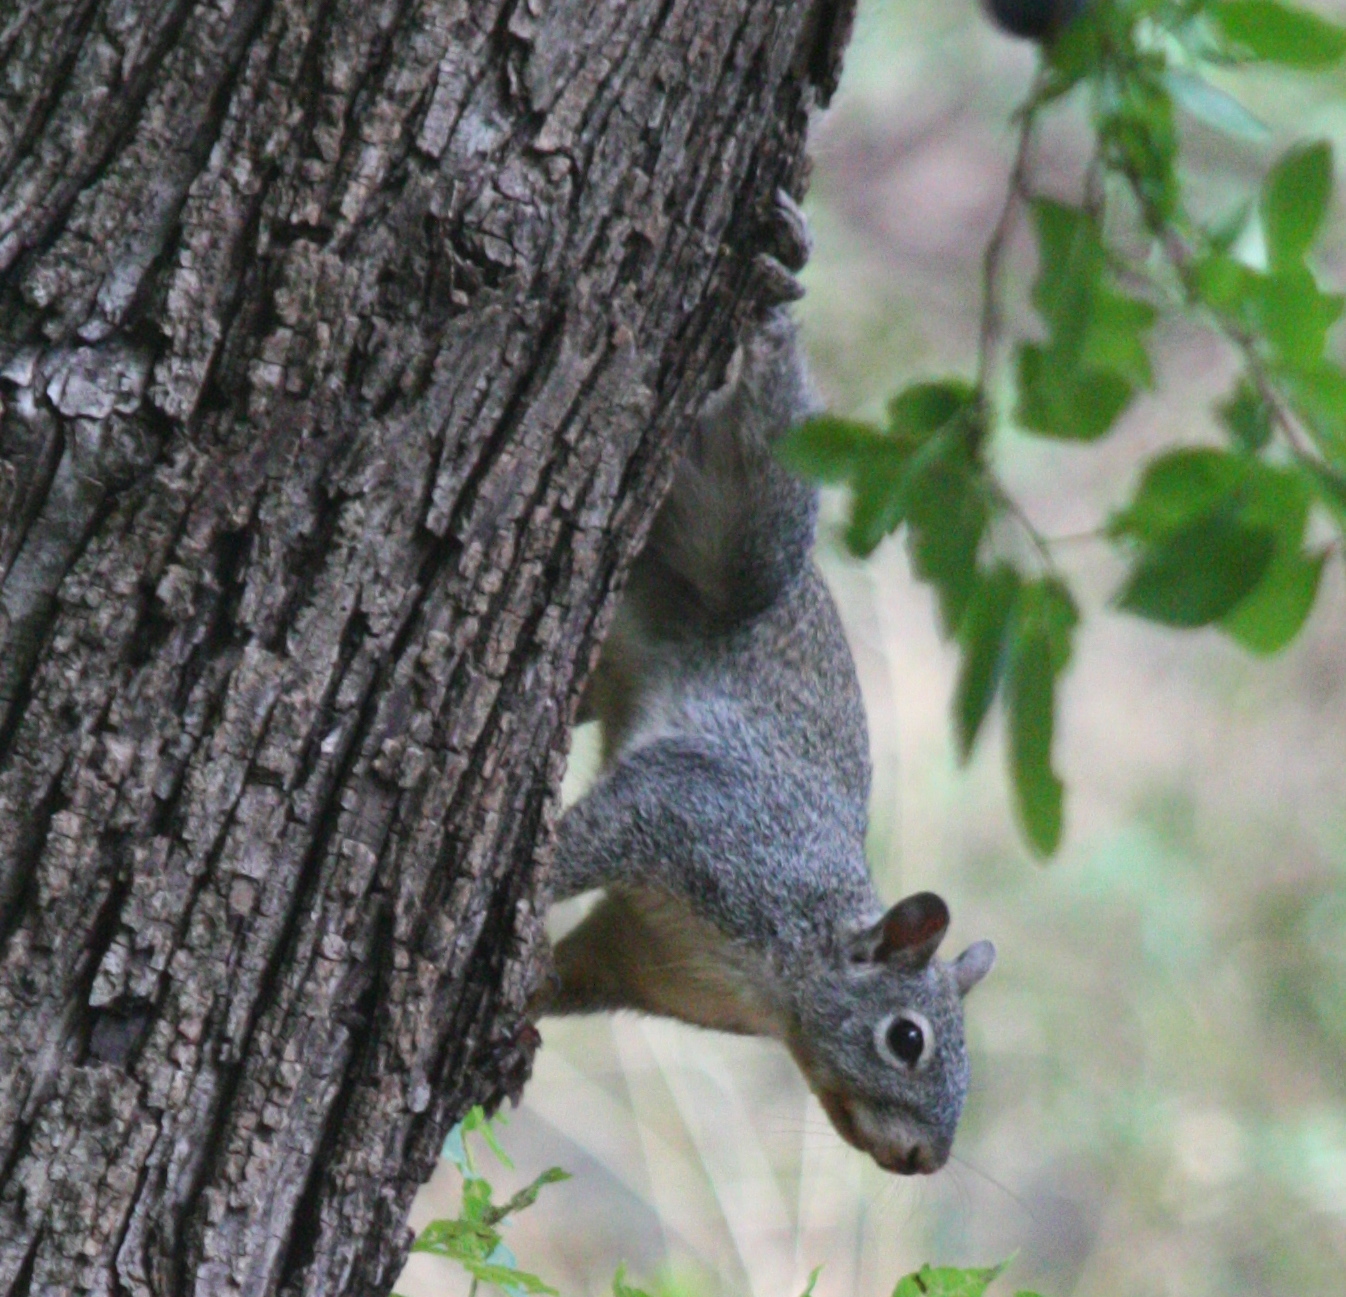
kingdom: Animalia
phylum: Chordata
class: Mammalia
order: Rodentia
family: Sciuridae
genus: Sciurus
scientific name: Sciurus arizonensis
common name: Arizona gray squirrel
